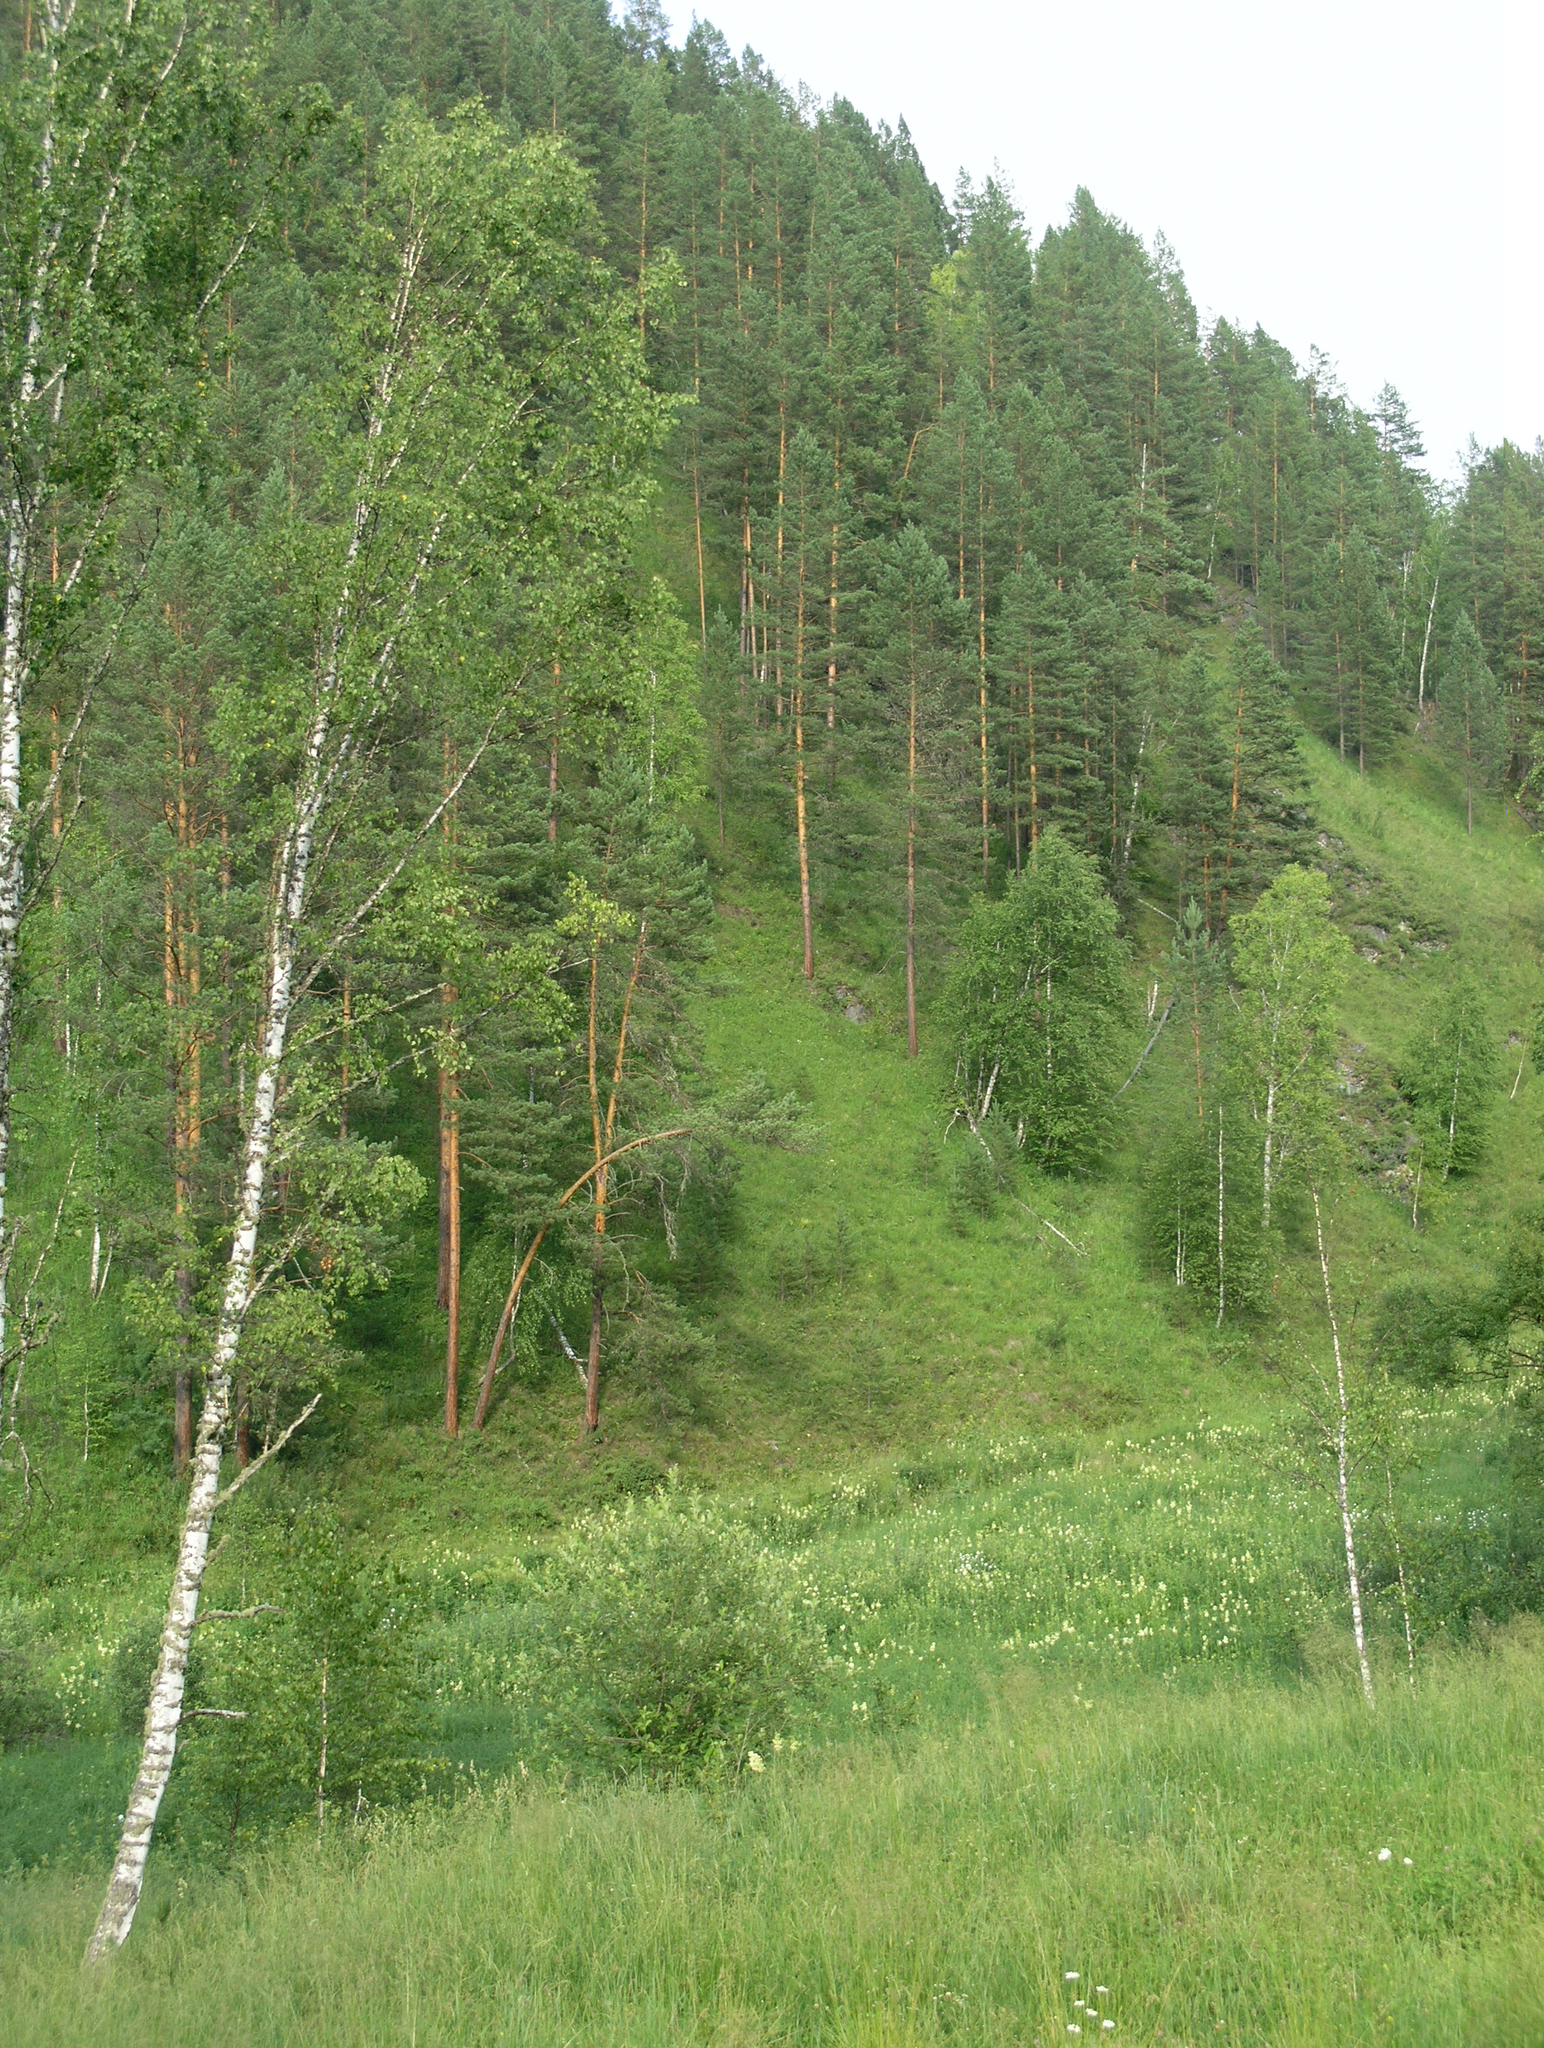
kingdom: Plantae
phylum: Tracheophyta
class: Magnoliopsida
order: Fagales
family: Betulaceae
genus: Betula
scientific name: Betula pendula
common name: Silver birch
